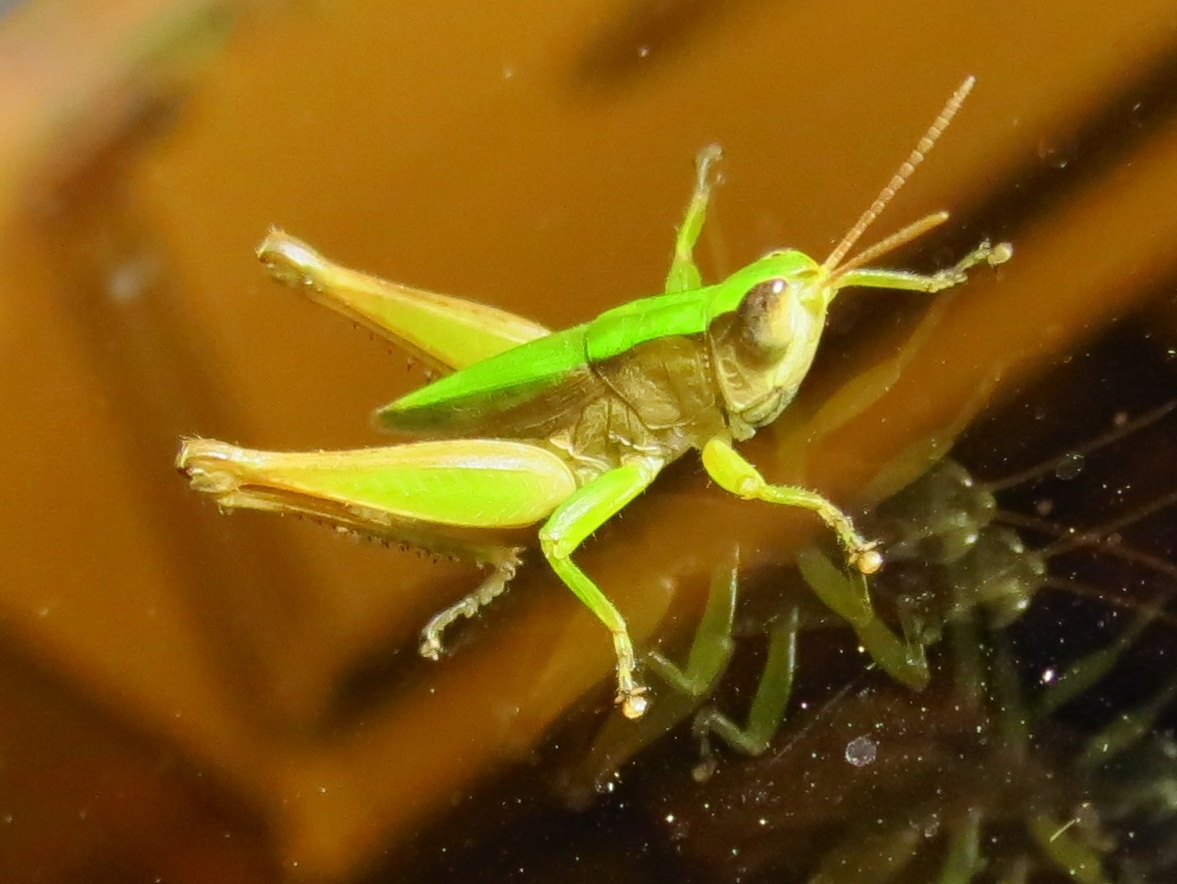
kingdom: Animalia
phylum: Arthropoda
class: Insecta
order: Orthoptera
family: Acrididae
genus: Dichromorpha
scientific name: Dichromorpha viridis
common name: Short-winged green grasshopper
